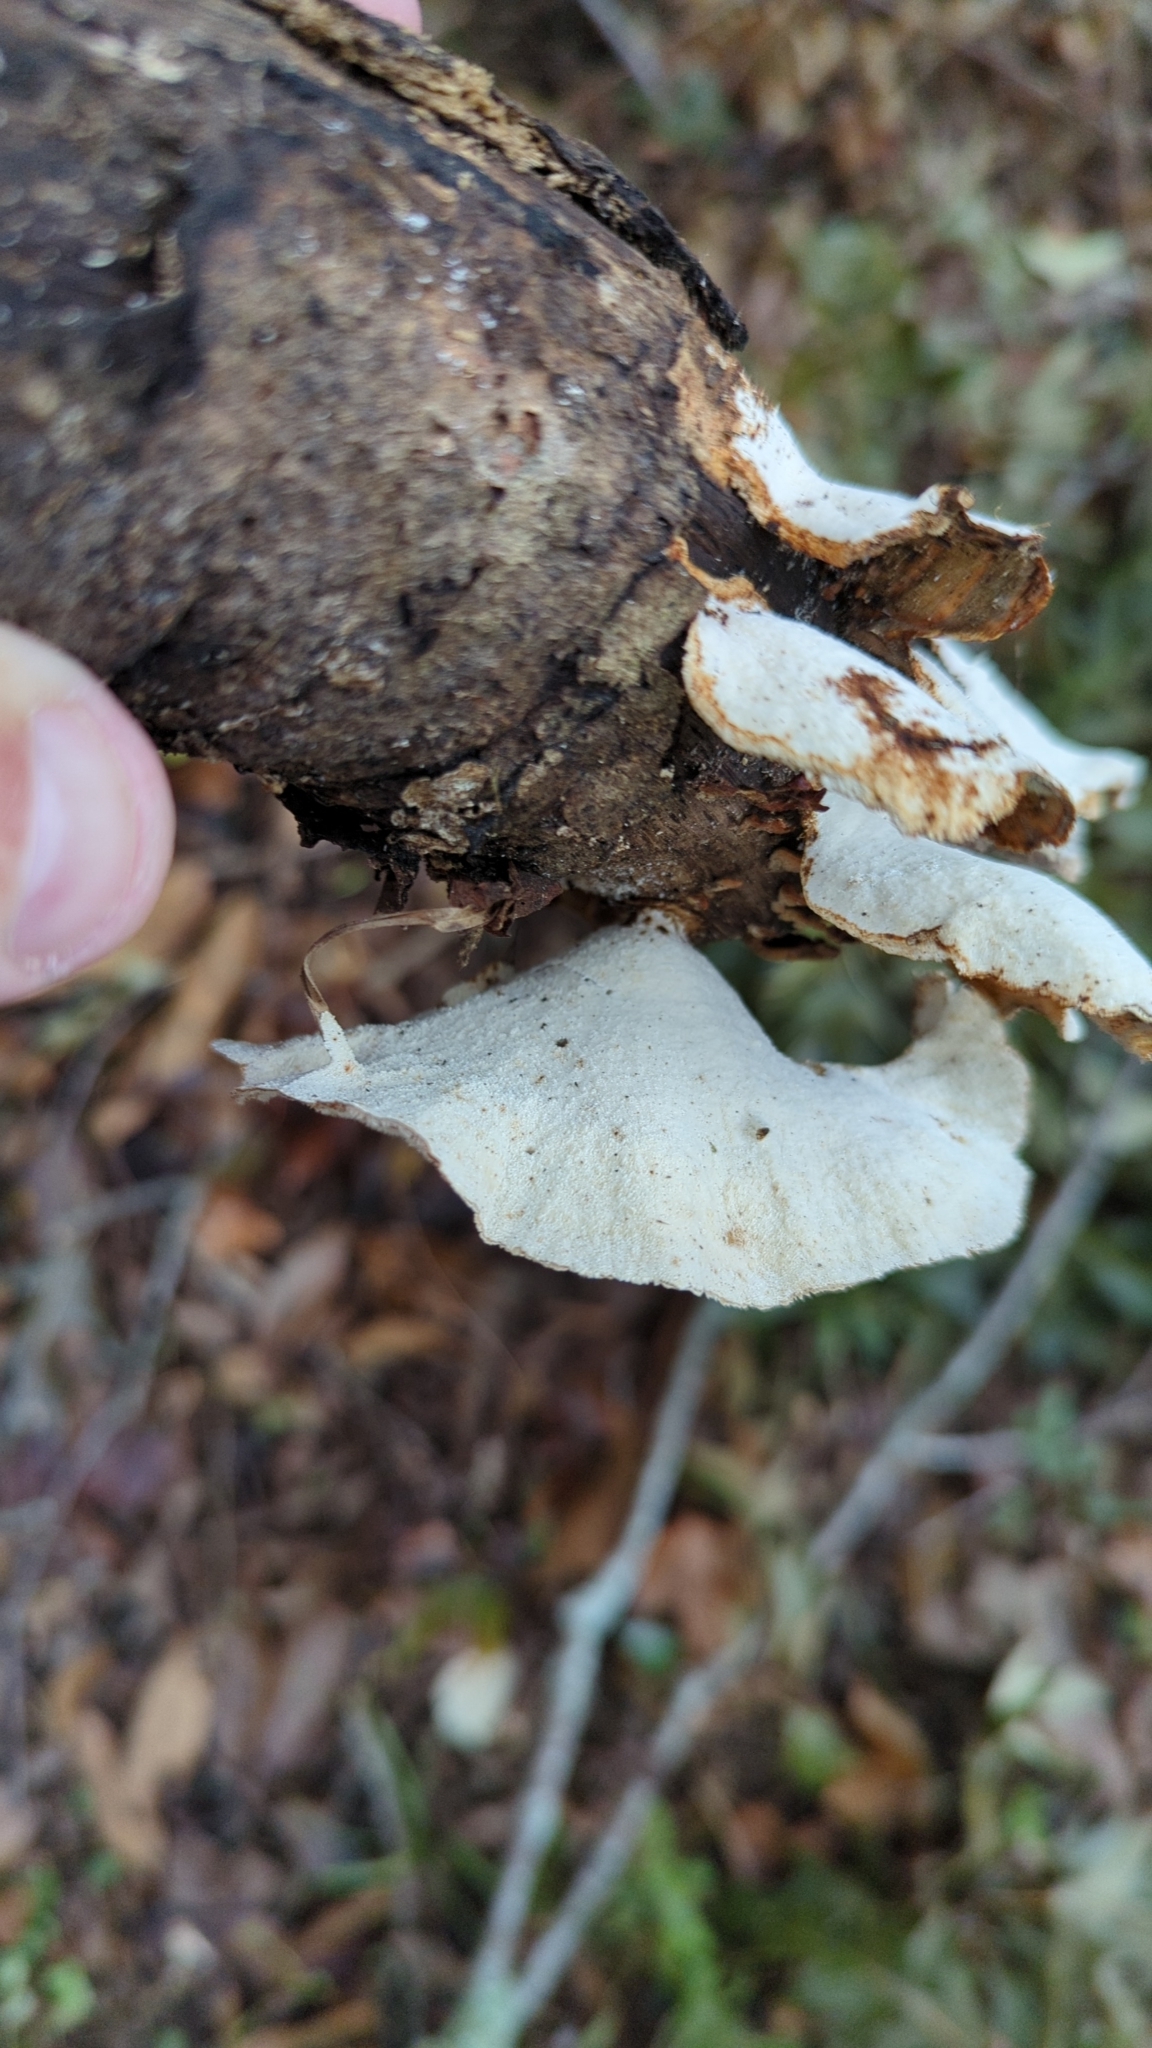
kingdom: Fungi
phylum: Basidiomycota
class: Agaricomycetes
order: Polyporales
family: Polyporaceae
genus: Trametes
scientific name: Trametes versicolor
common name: Turkeytail
